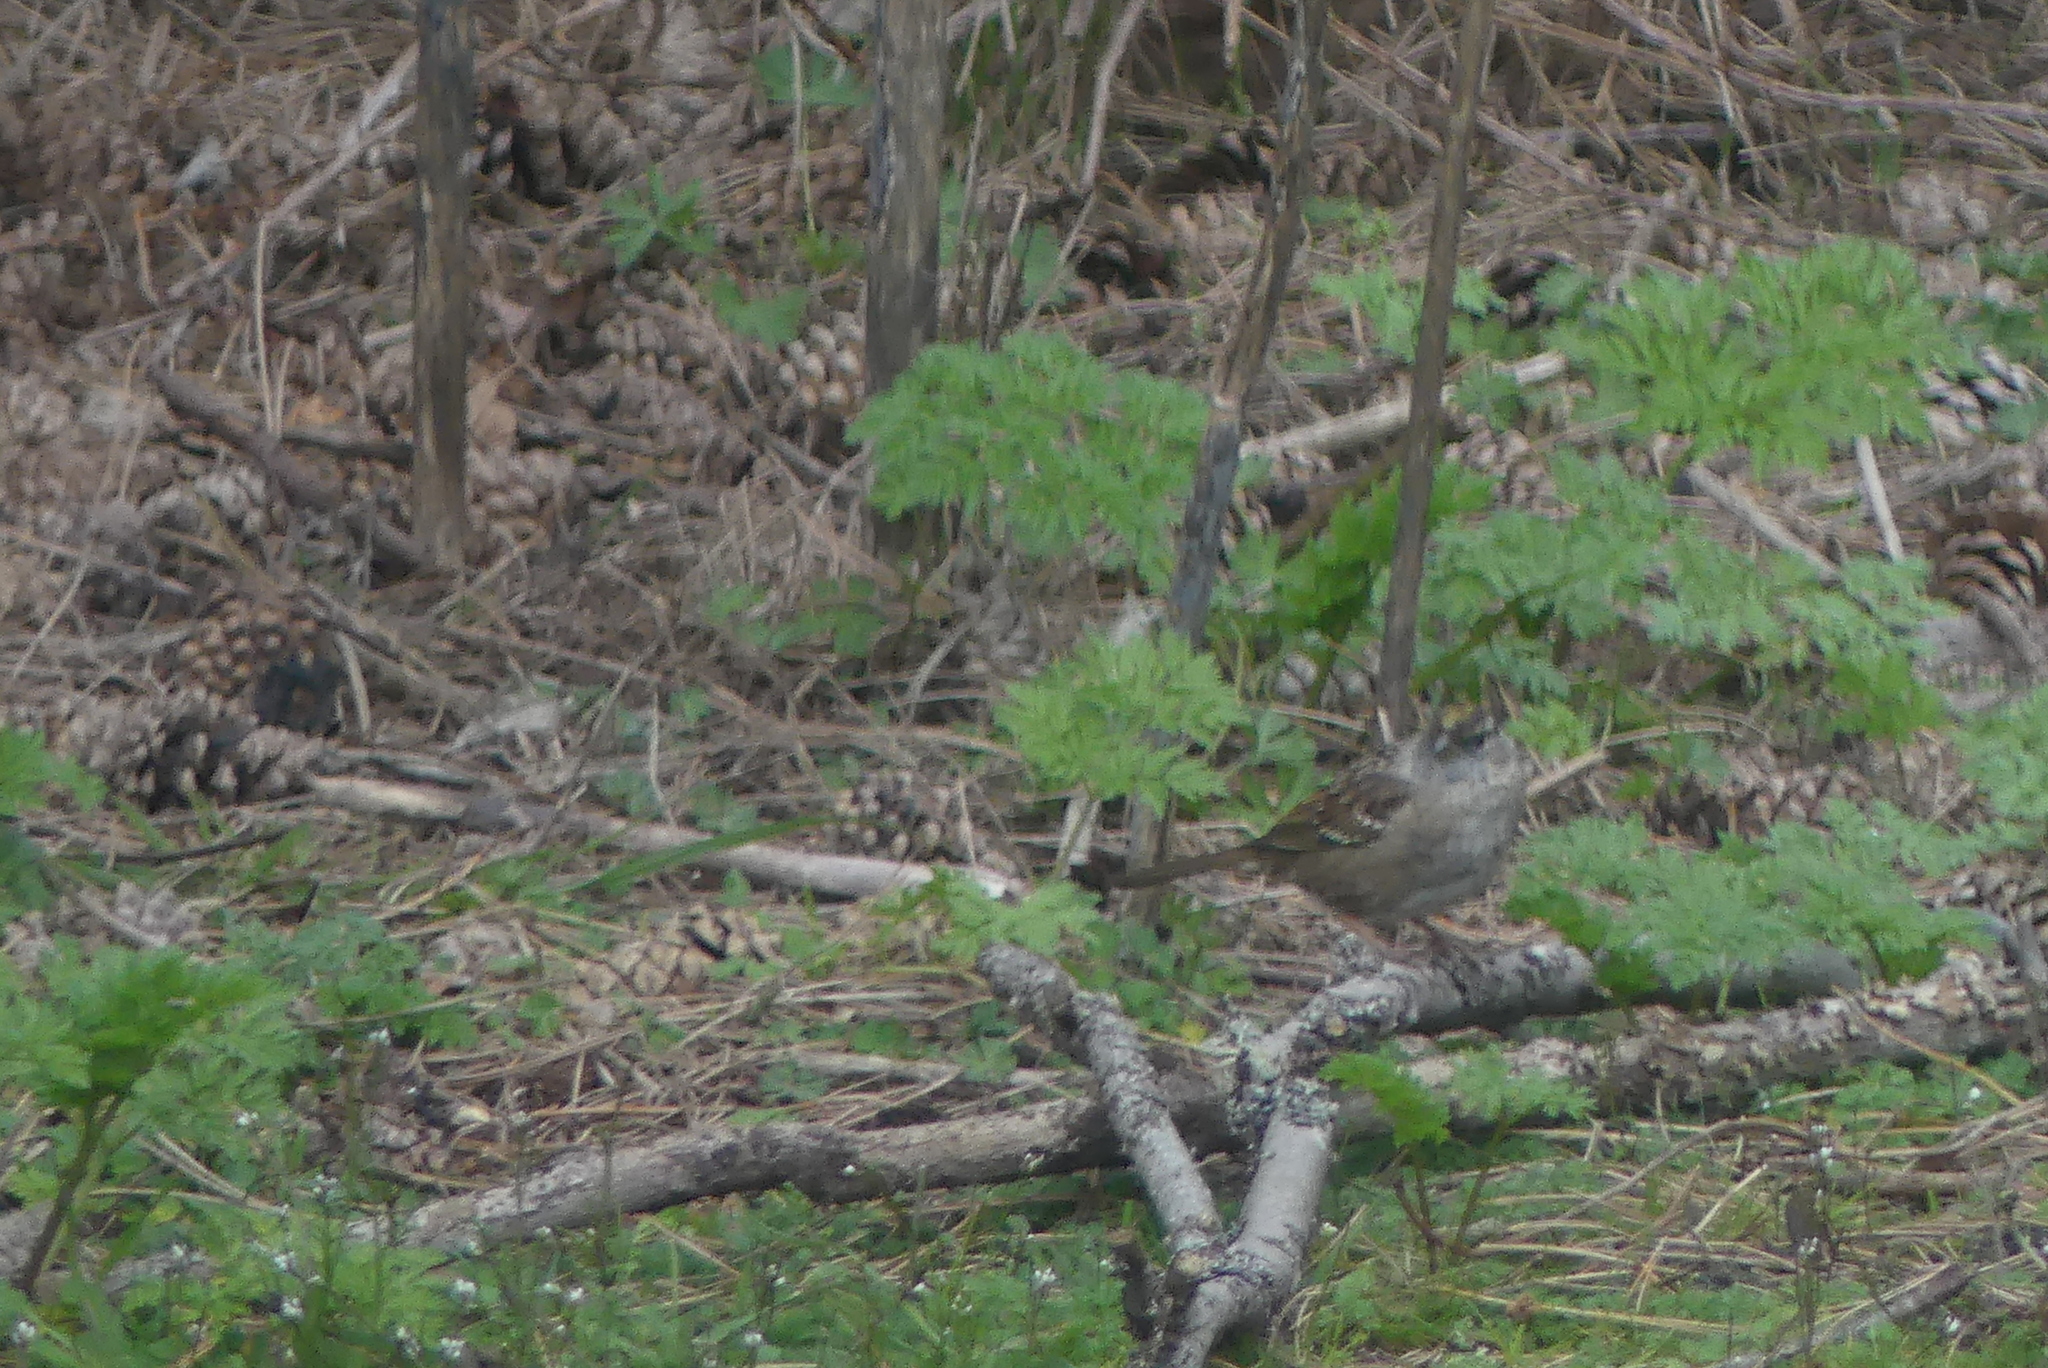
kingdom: Animalia
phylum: Chordata
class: Aves
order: Passeriformes
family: Passerellidae
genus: Zonotrichia
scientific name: Zonotrichia atricapilla
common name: Golden-crowned sparrow
